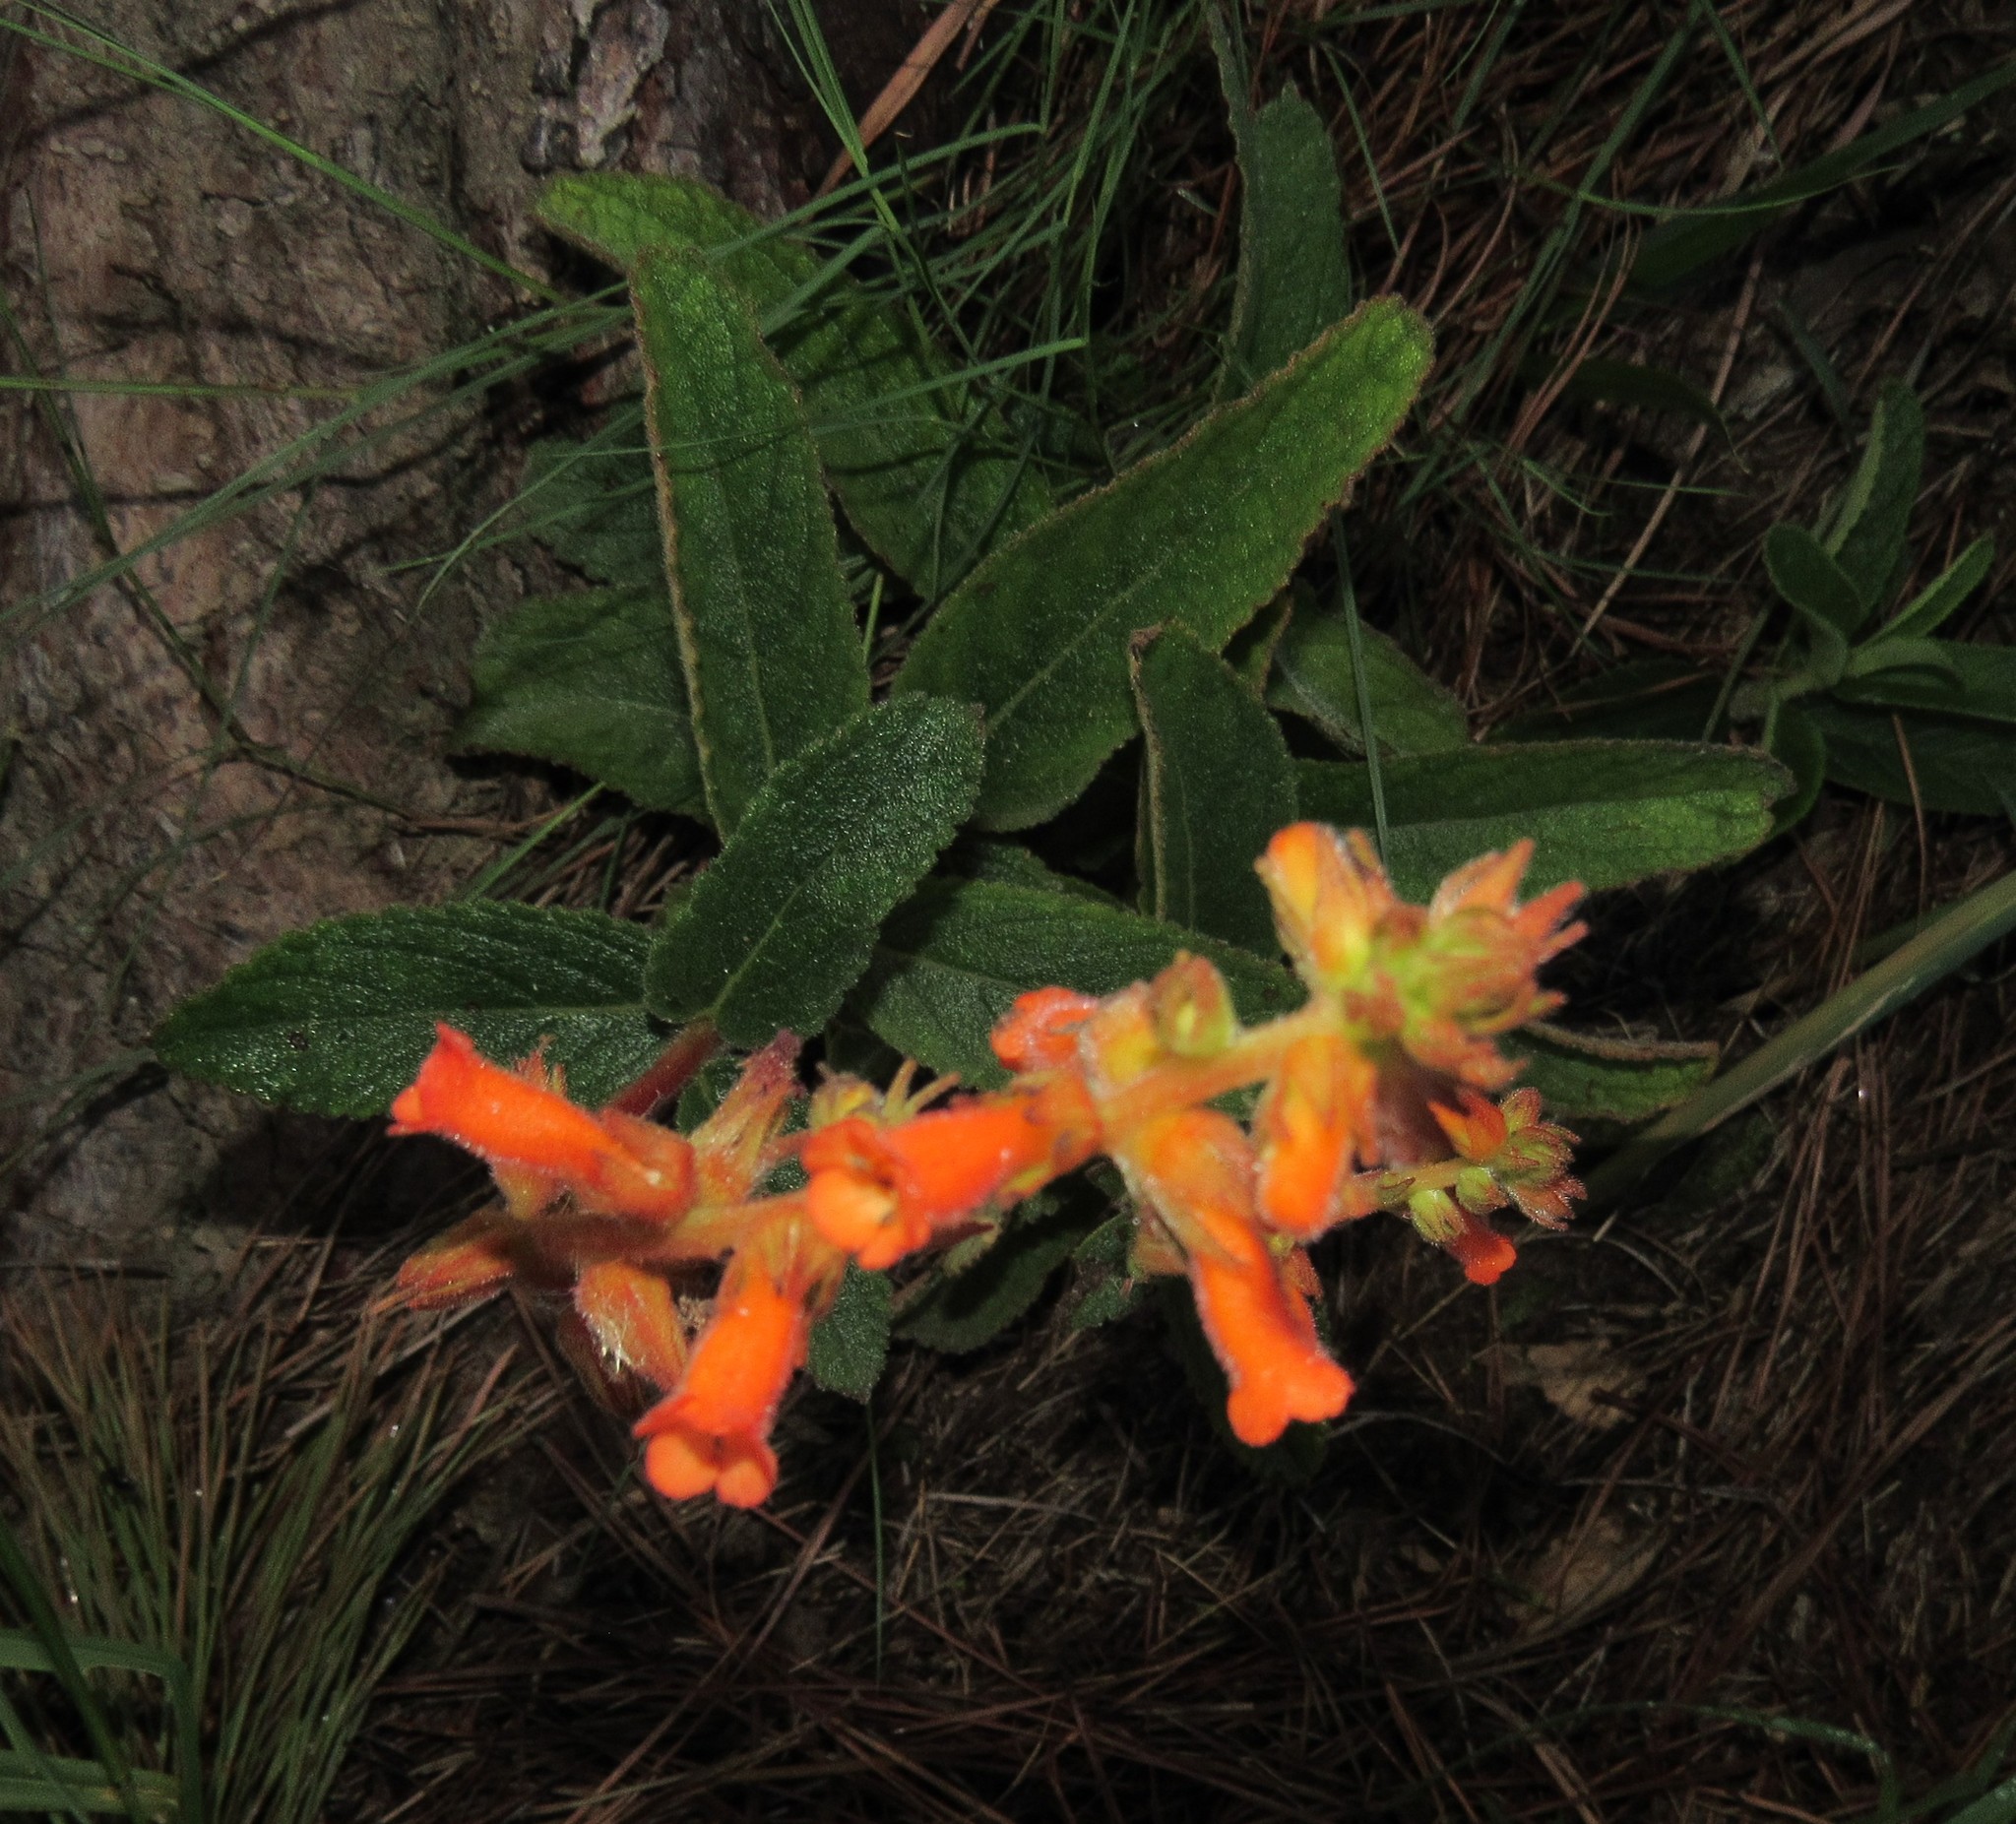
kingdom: Plantae
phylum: Tracheophyta
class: Magnoliopsida
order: Lamiales
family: Gesneriaceae
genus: Sinningia
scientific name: Sinningia allagophylla
